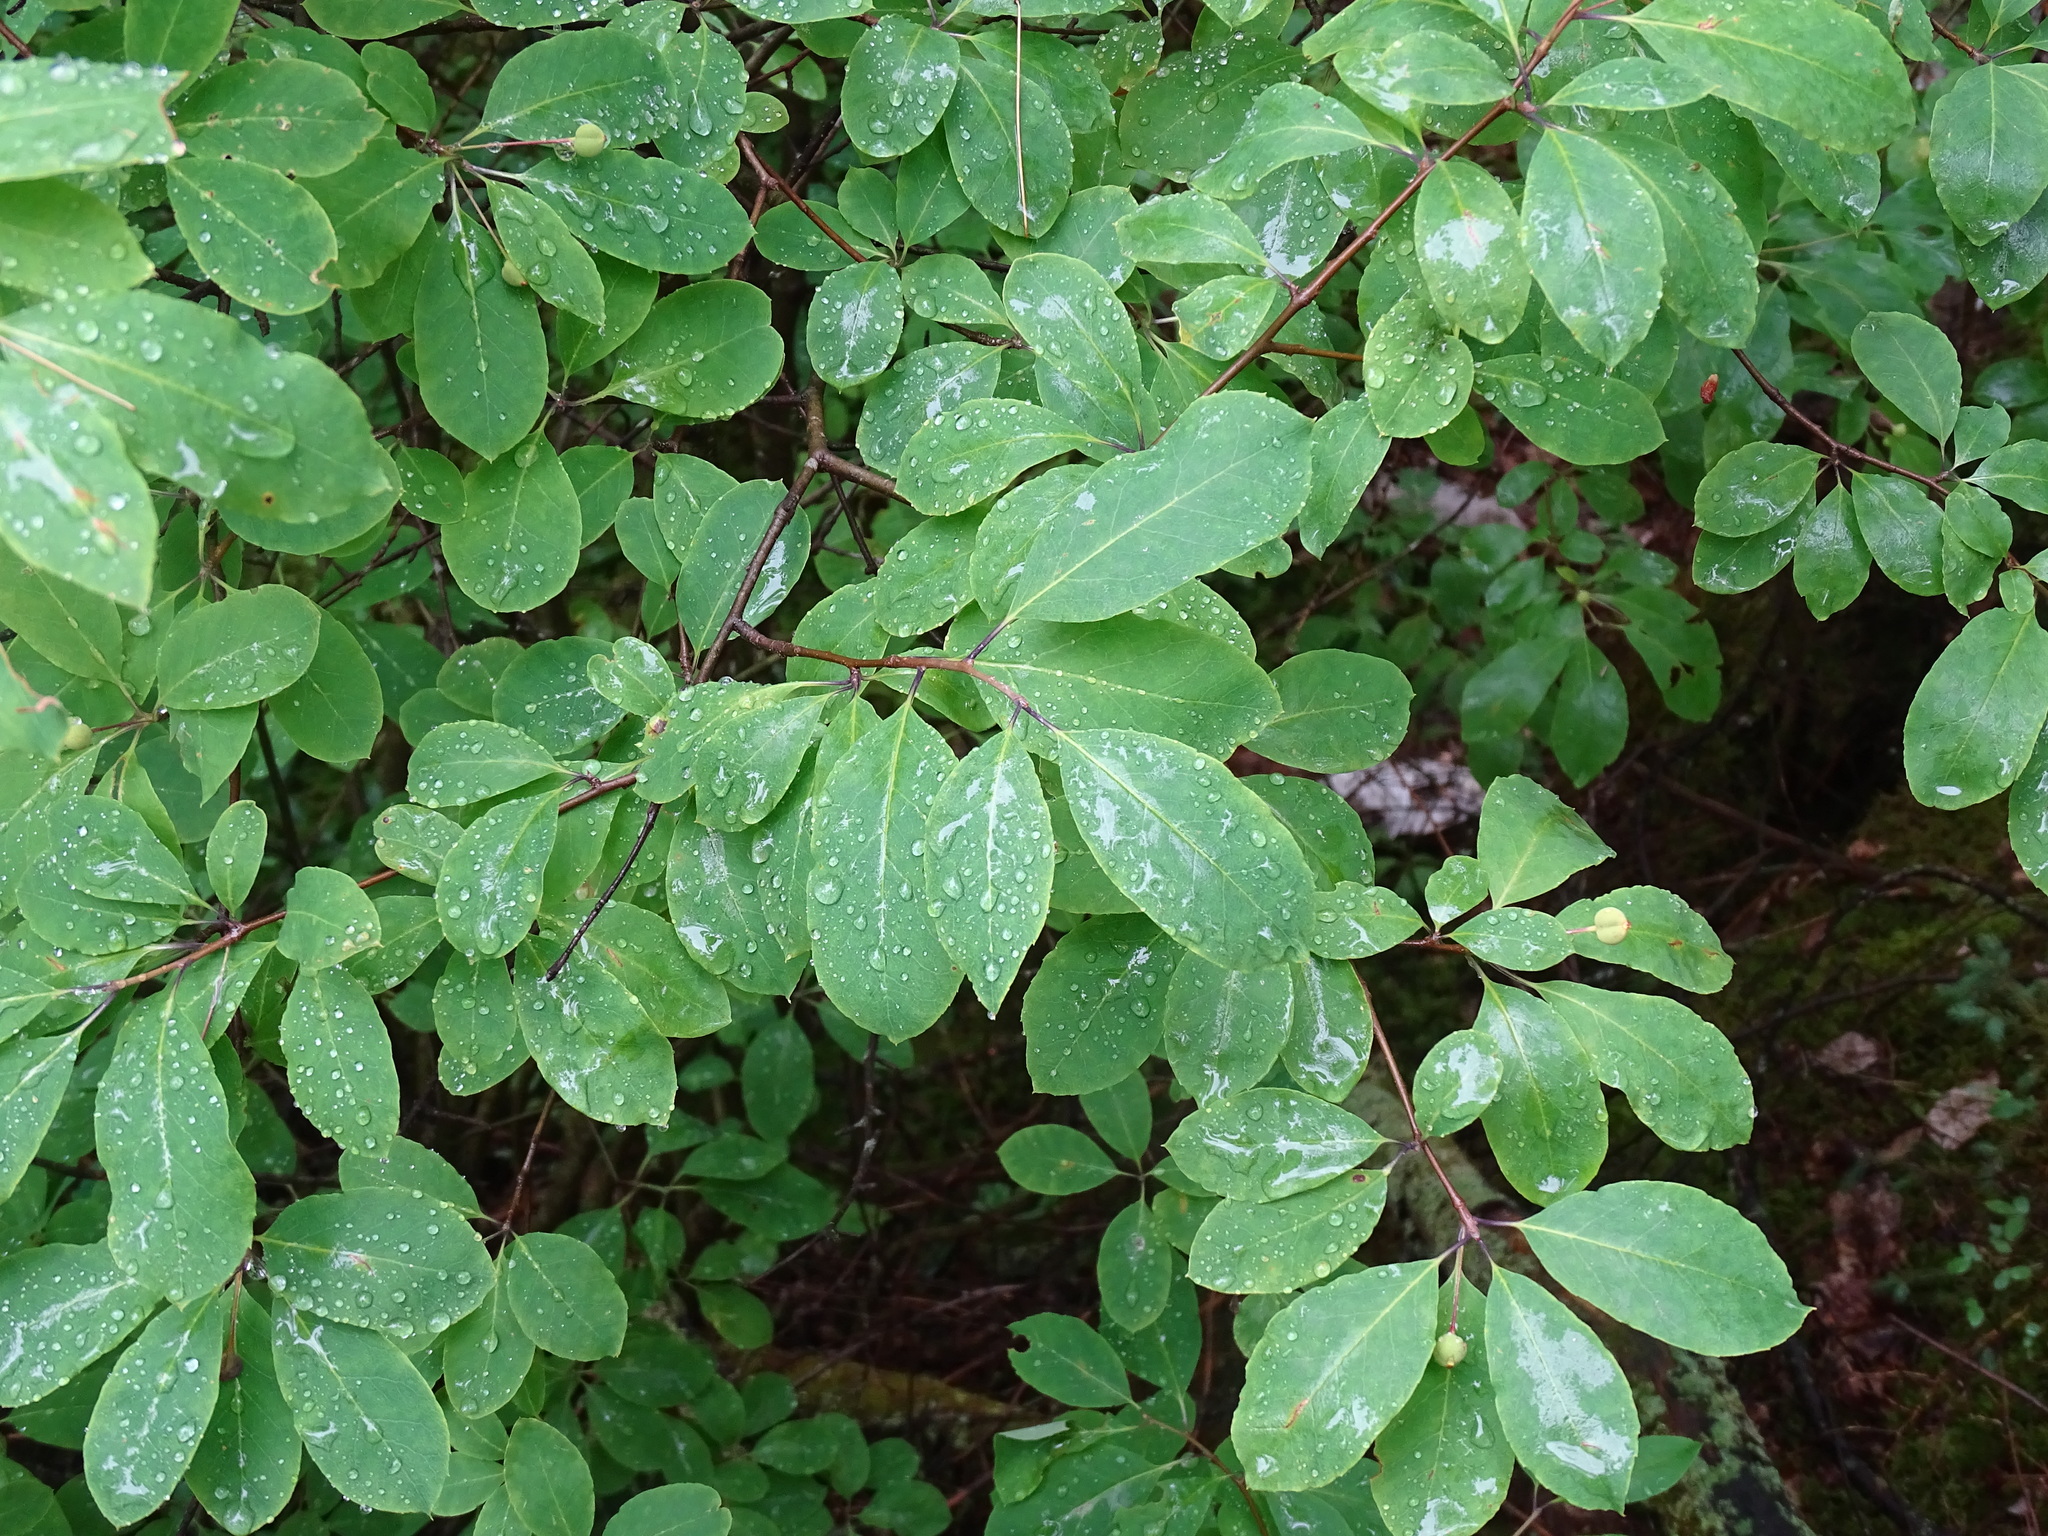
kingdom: Plantae
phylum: Tracheophyta
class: Magnoliopsida
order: Aquifoliales
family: Aquifoliaceae
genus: Ilex
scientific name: Ilex mucronata
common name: Catberry
